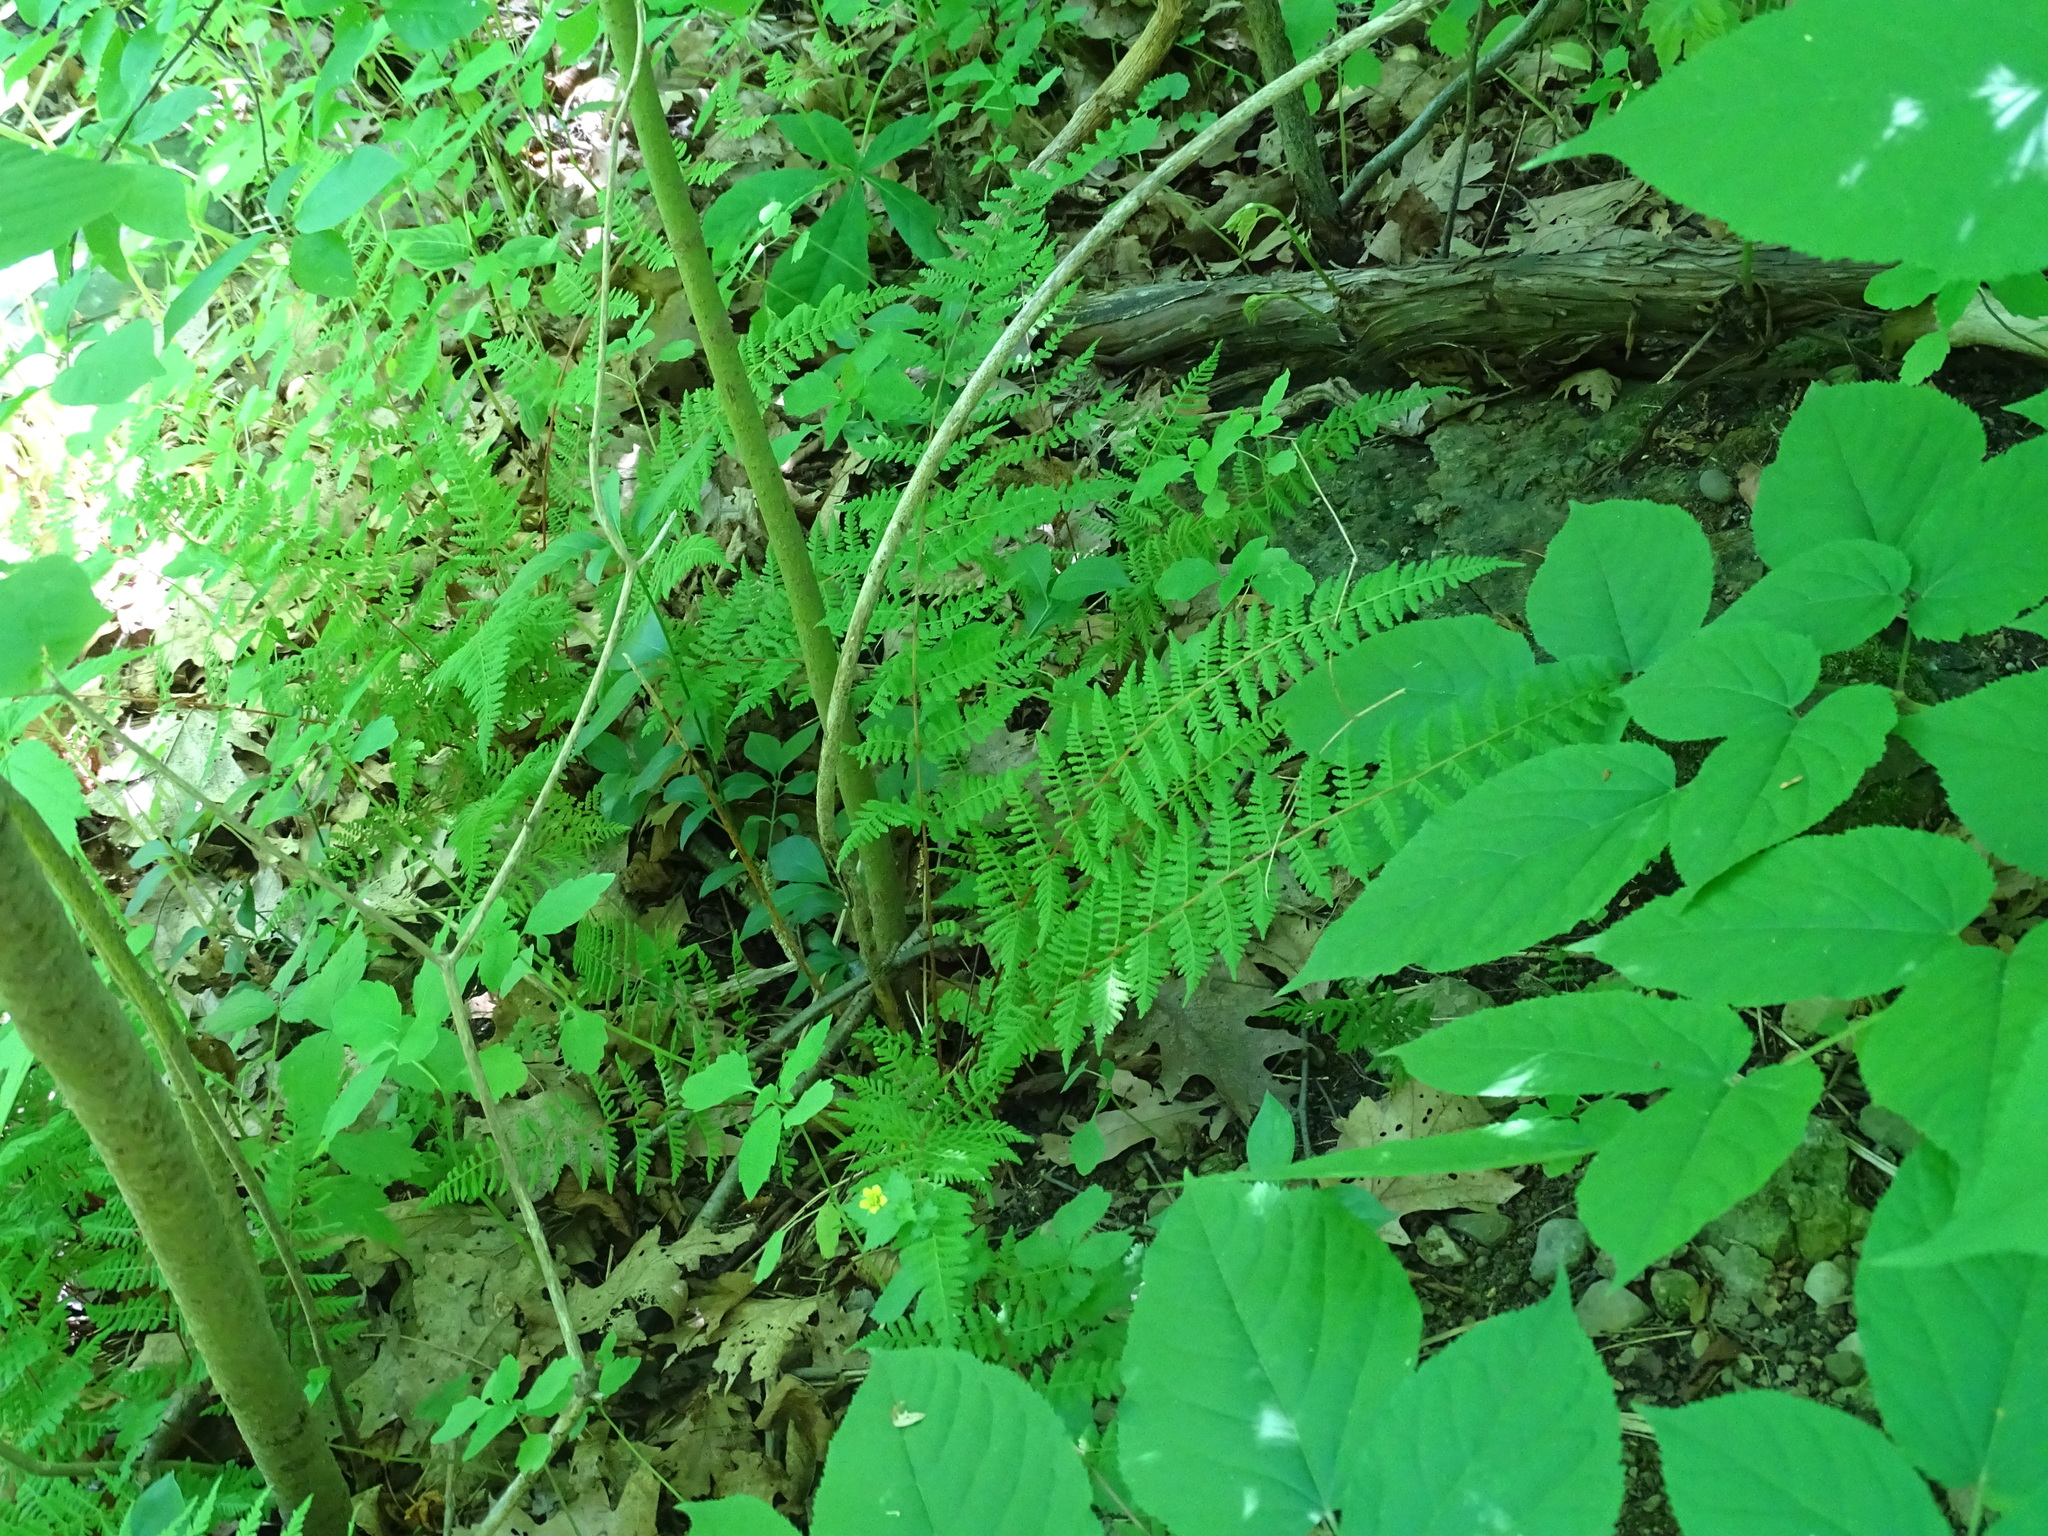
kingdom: Plantae
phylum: Tracheophyta
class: Polypodiopsida
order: Polypodiales
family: Cystopteridaceae
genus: Cystopteris
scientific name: Cystopteris bulbifera
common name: Bulblet bladder fern
